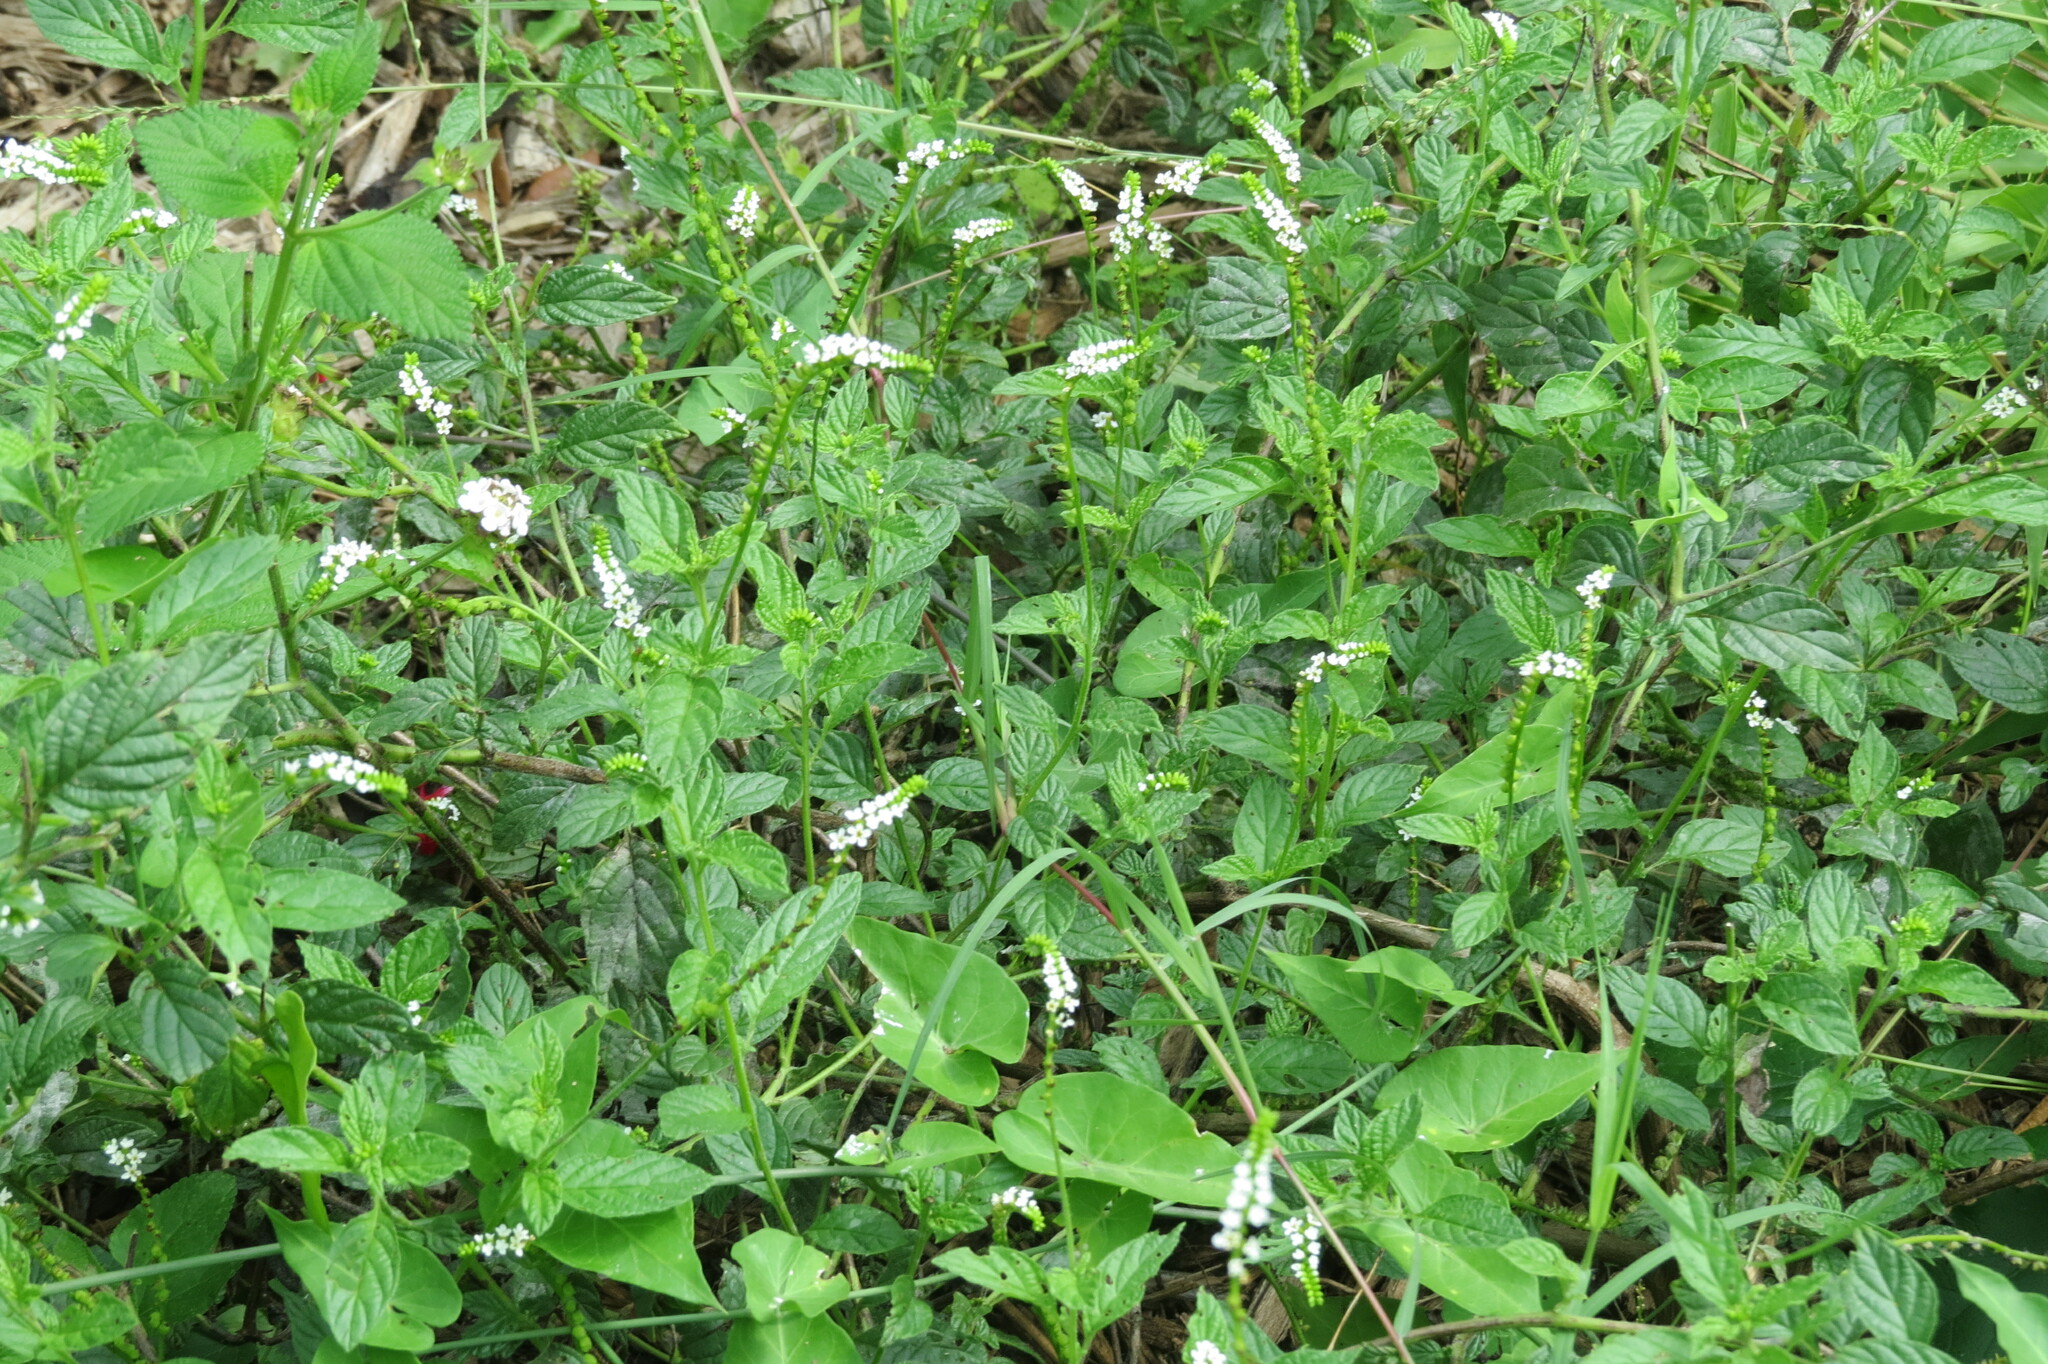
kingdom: Plantae
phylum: Tracheophyta
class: Magnoliopsida
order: Boraginales
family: Heliotropiaceae
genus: Heliotropium
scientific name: Heliotropium angiospermum
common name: Eye bright
